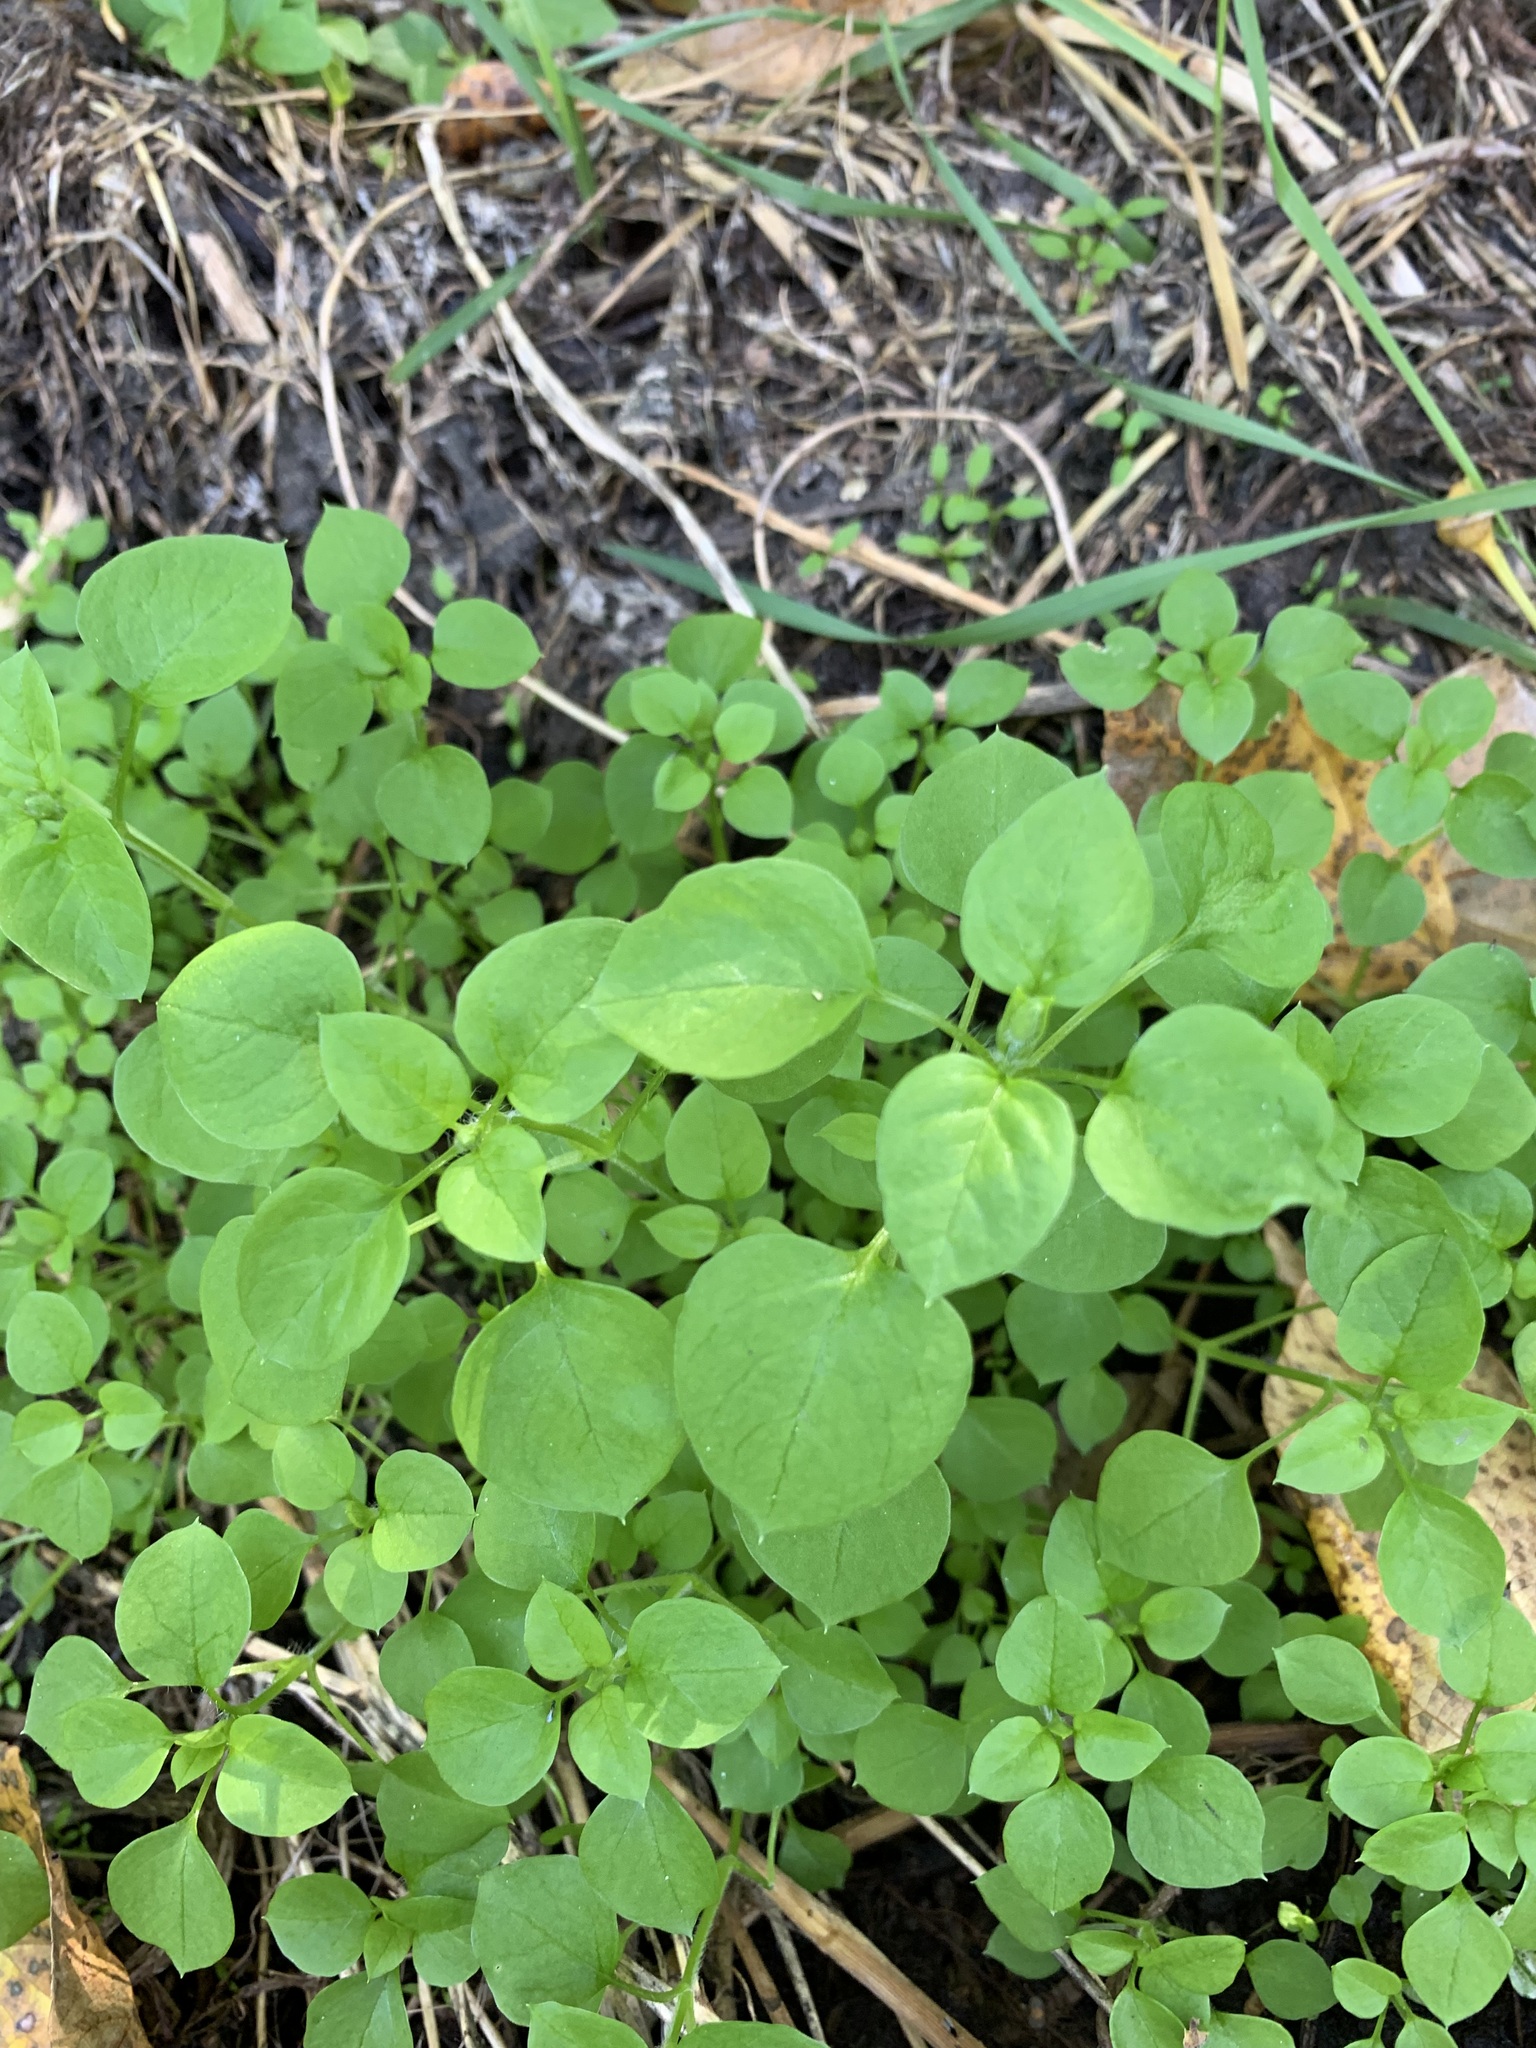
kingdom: Plantae
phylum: Tracheophyta
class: Magnoliopsida
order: Caryophyllales
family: Caryophyllaceae
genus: Stellaria
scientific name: Stellaria media
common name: Common chickweed
